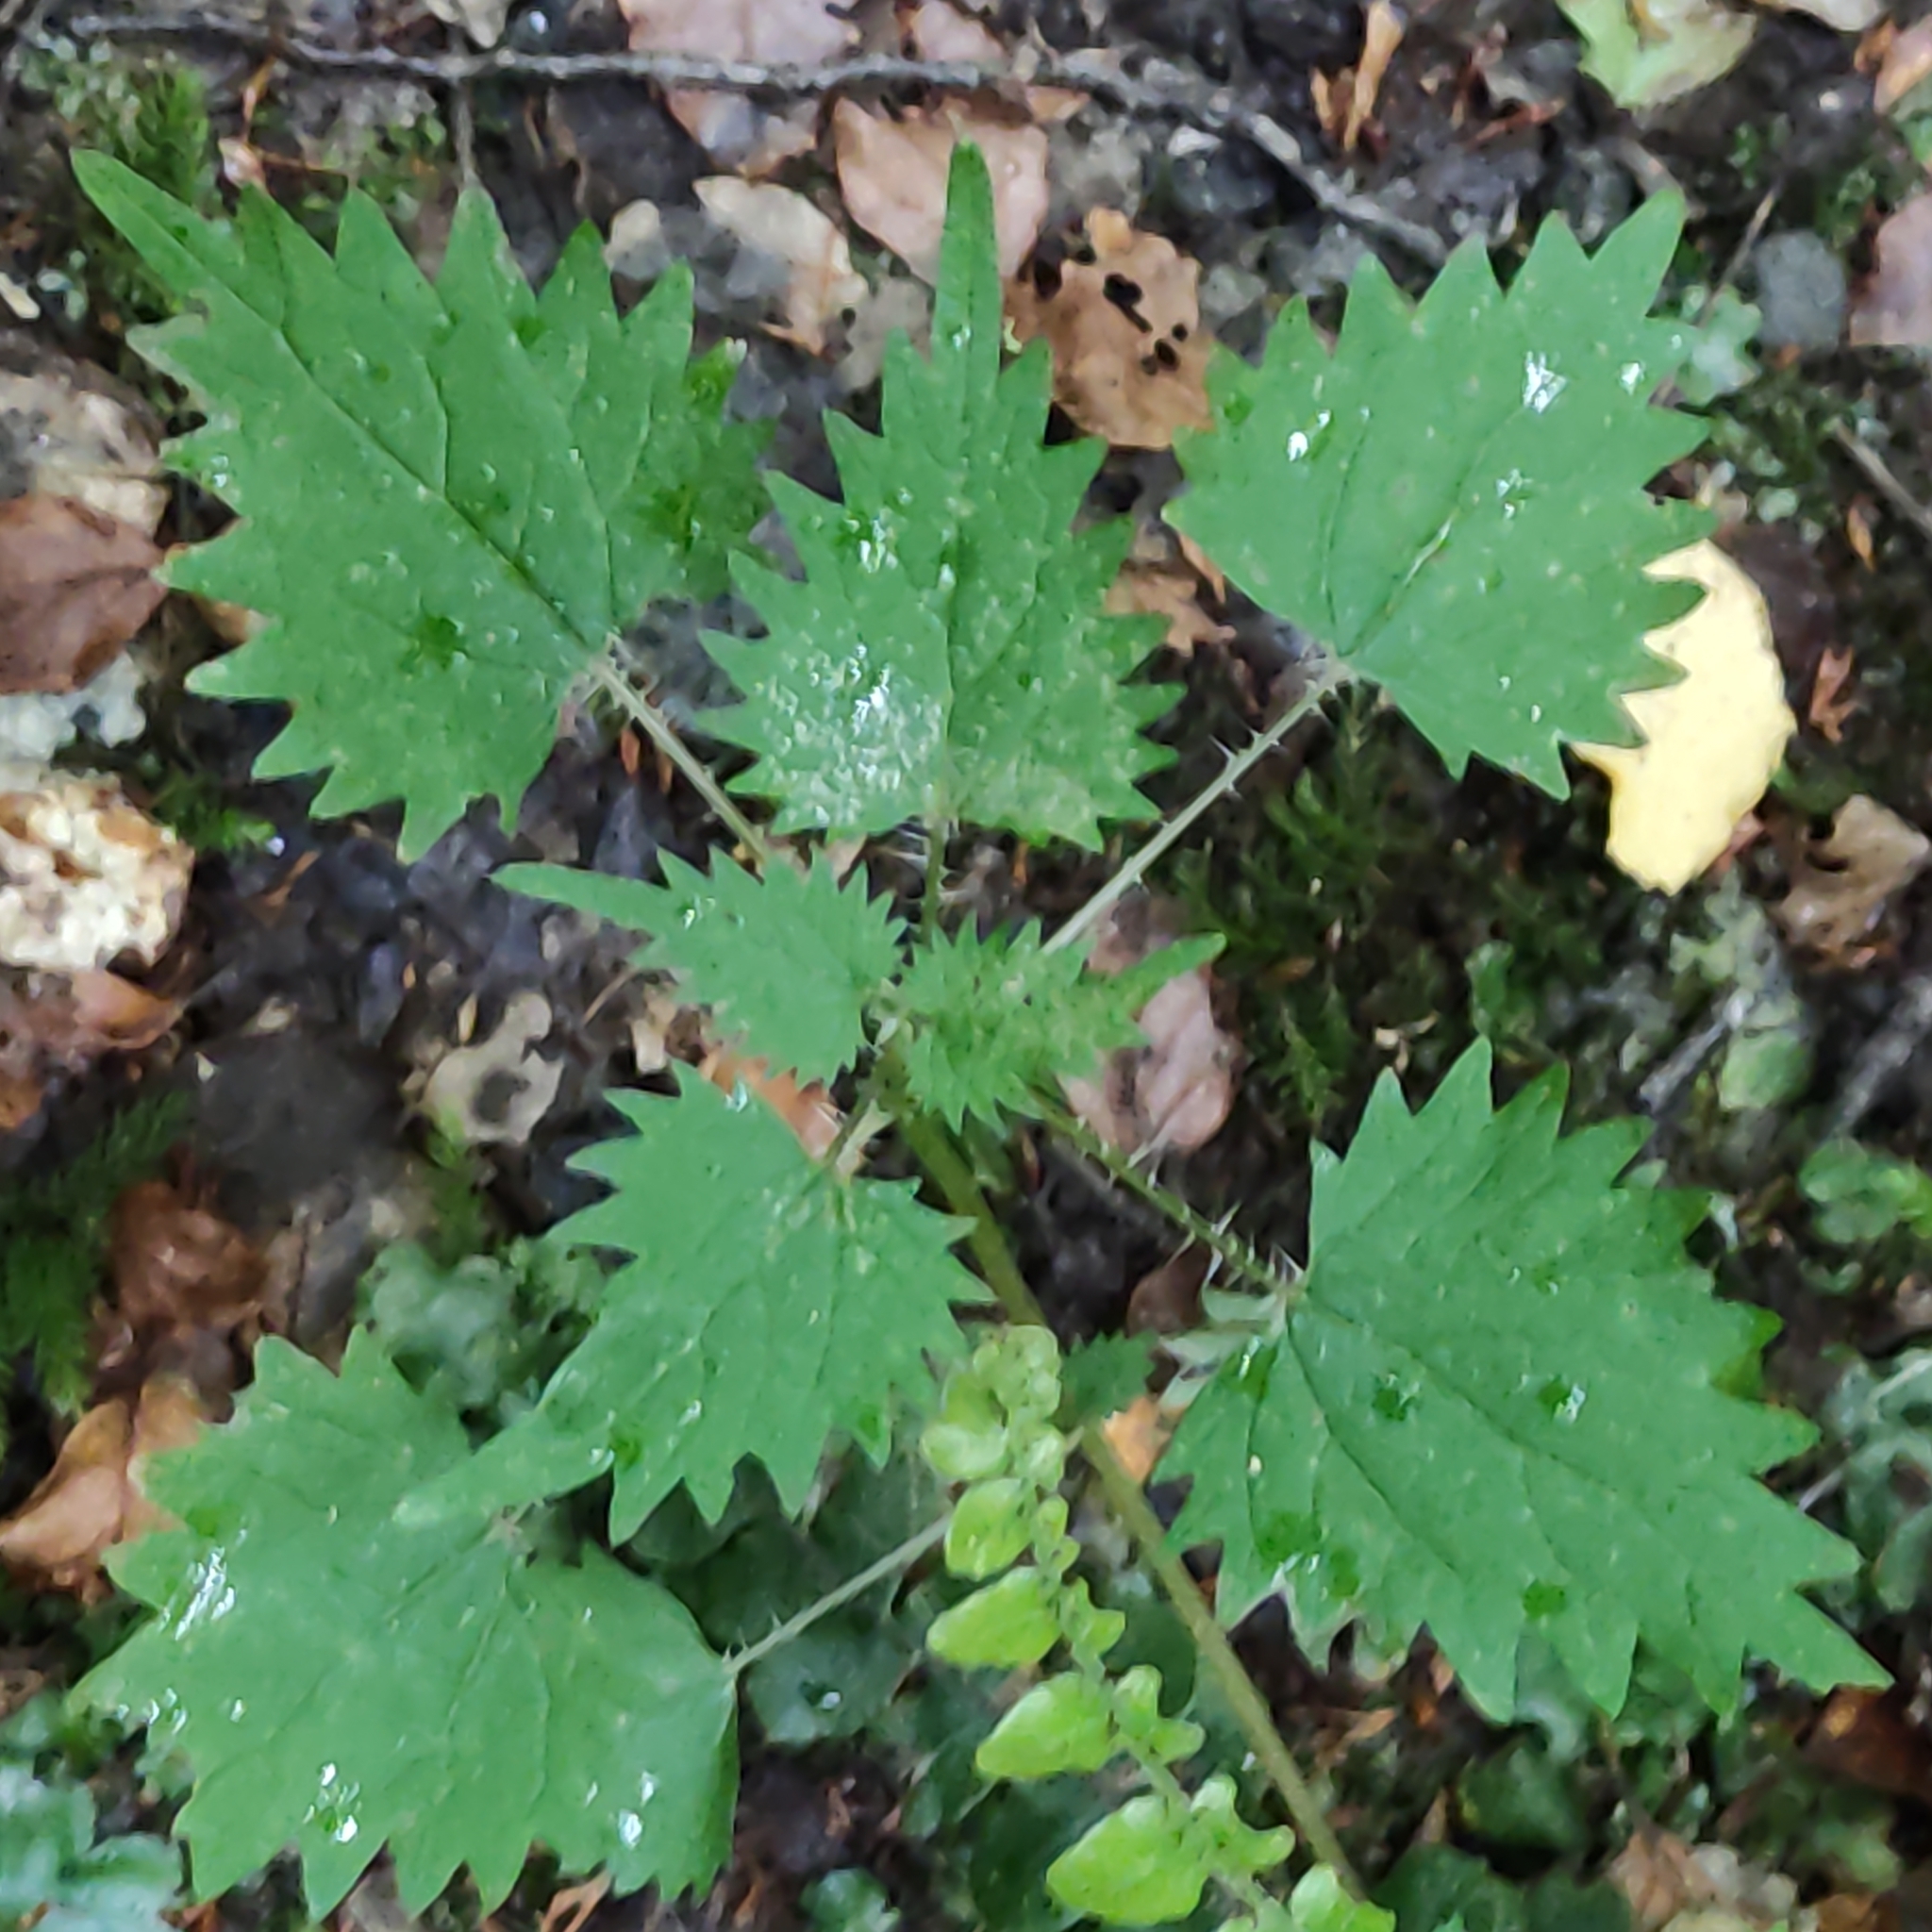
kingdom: Plantae
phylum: Tracheophyta
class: Magnoliopsida
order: Rosales
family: Urticaceae
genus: Urtica
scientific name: Urtica sykesii
